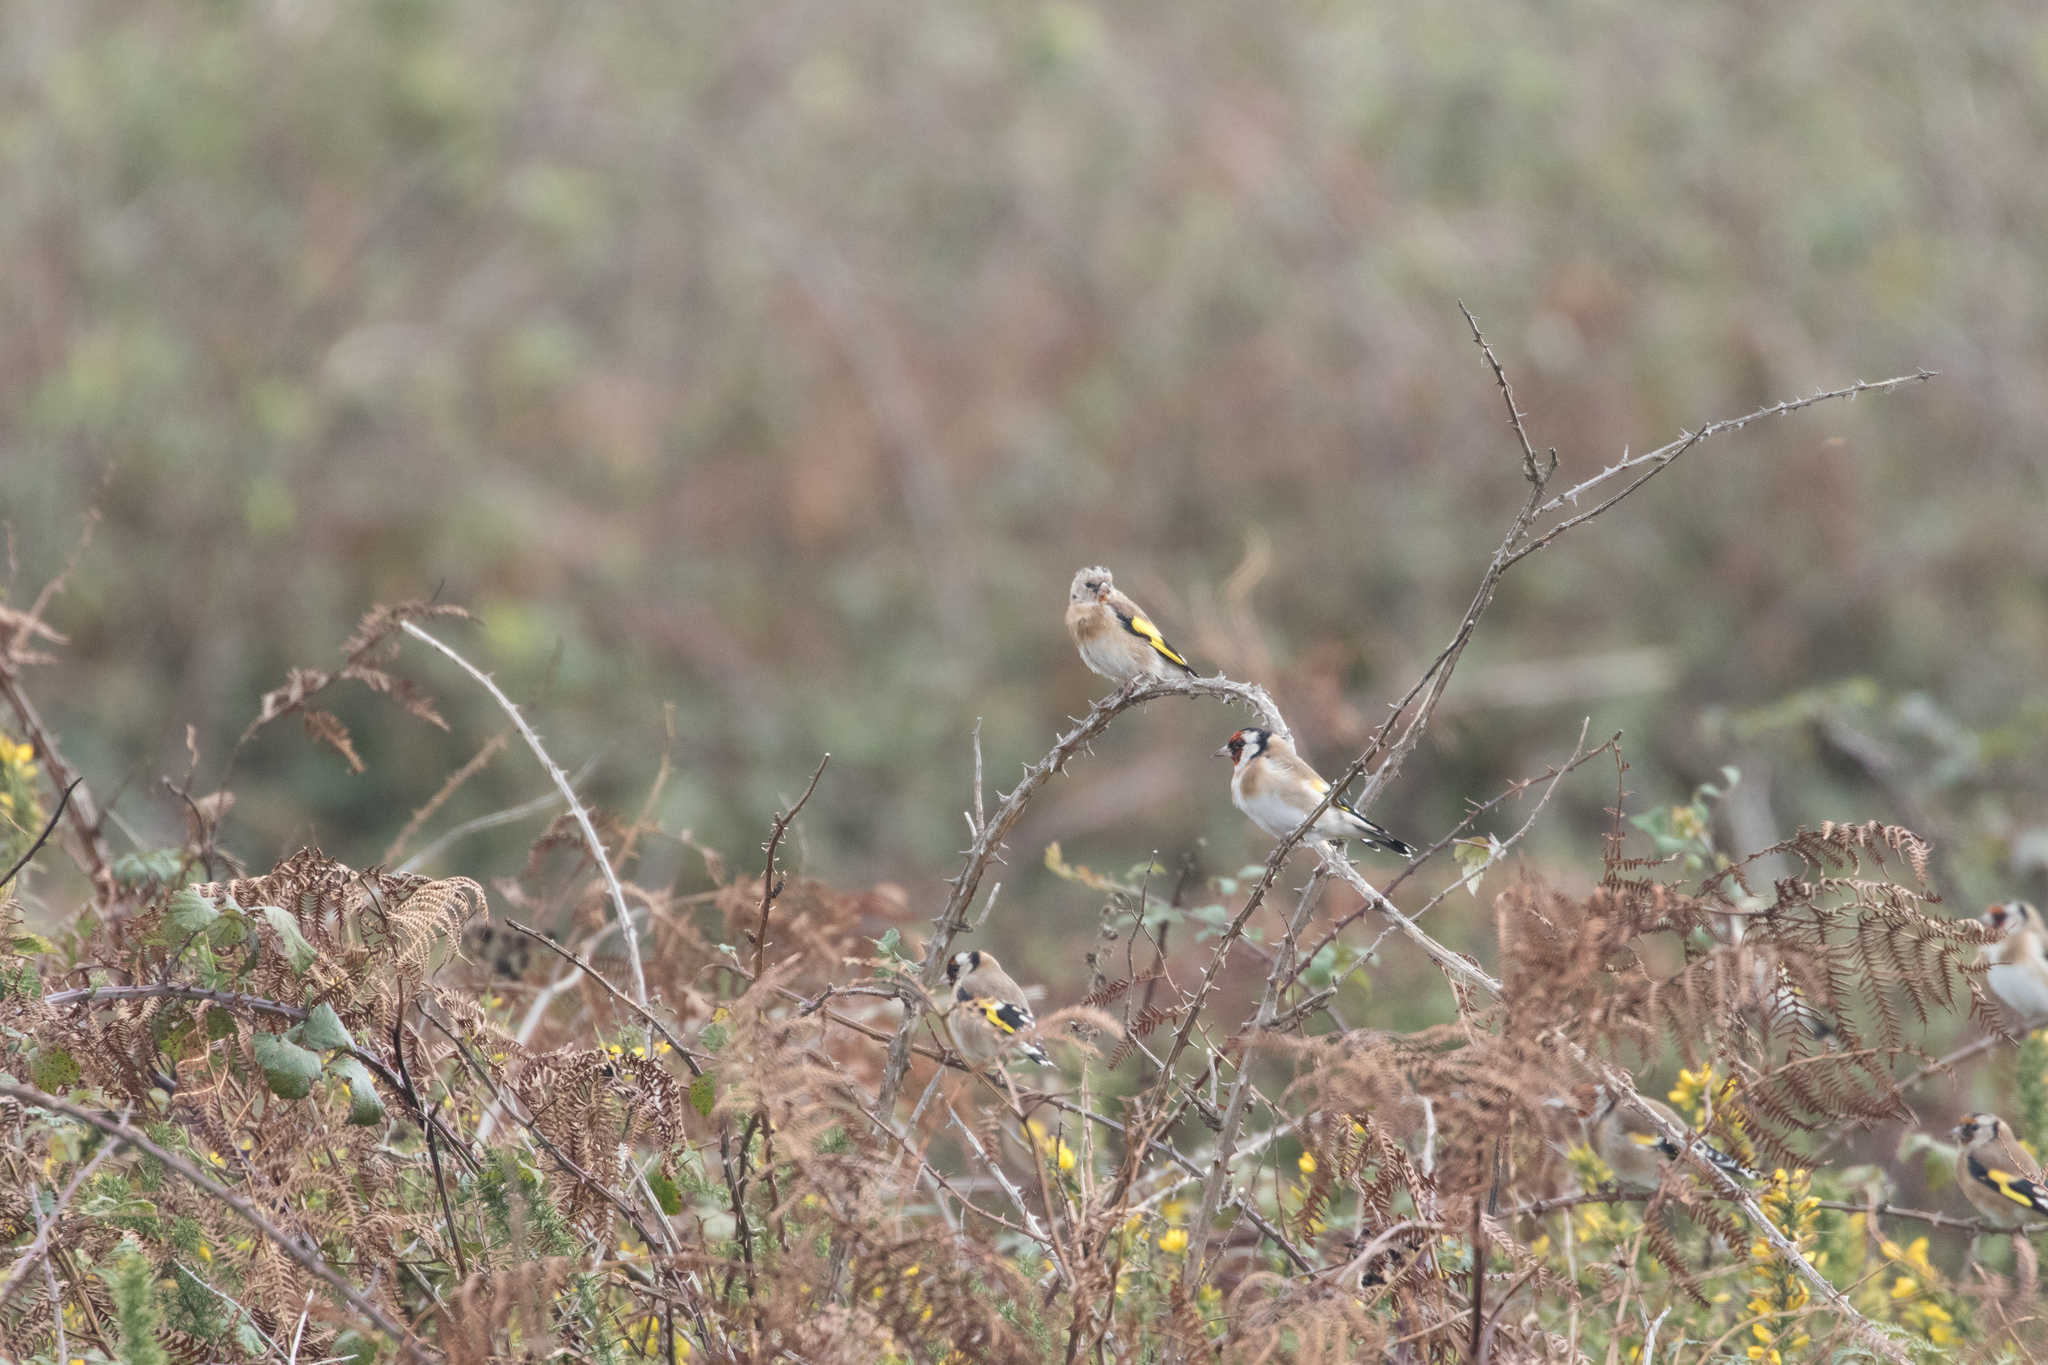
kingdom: Animalia
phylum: Chordata
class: Aves
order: Passeriformes
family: Fringillidae
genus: Carduelis
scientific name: Carduelis carduelis
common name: European goldfinch
